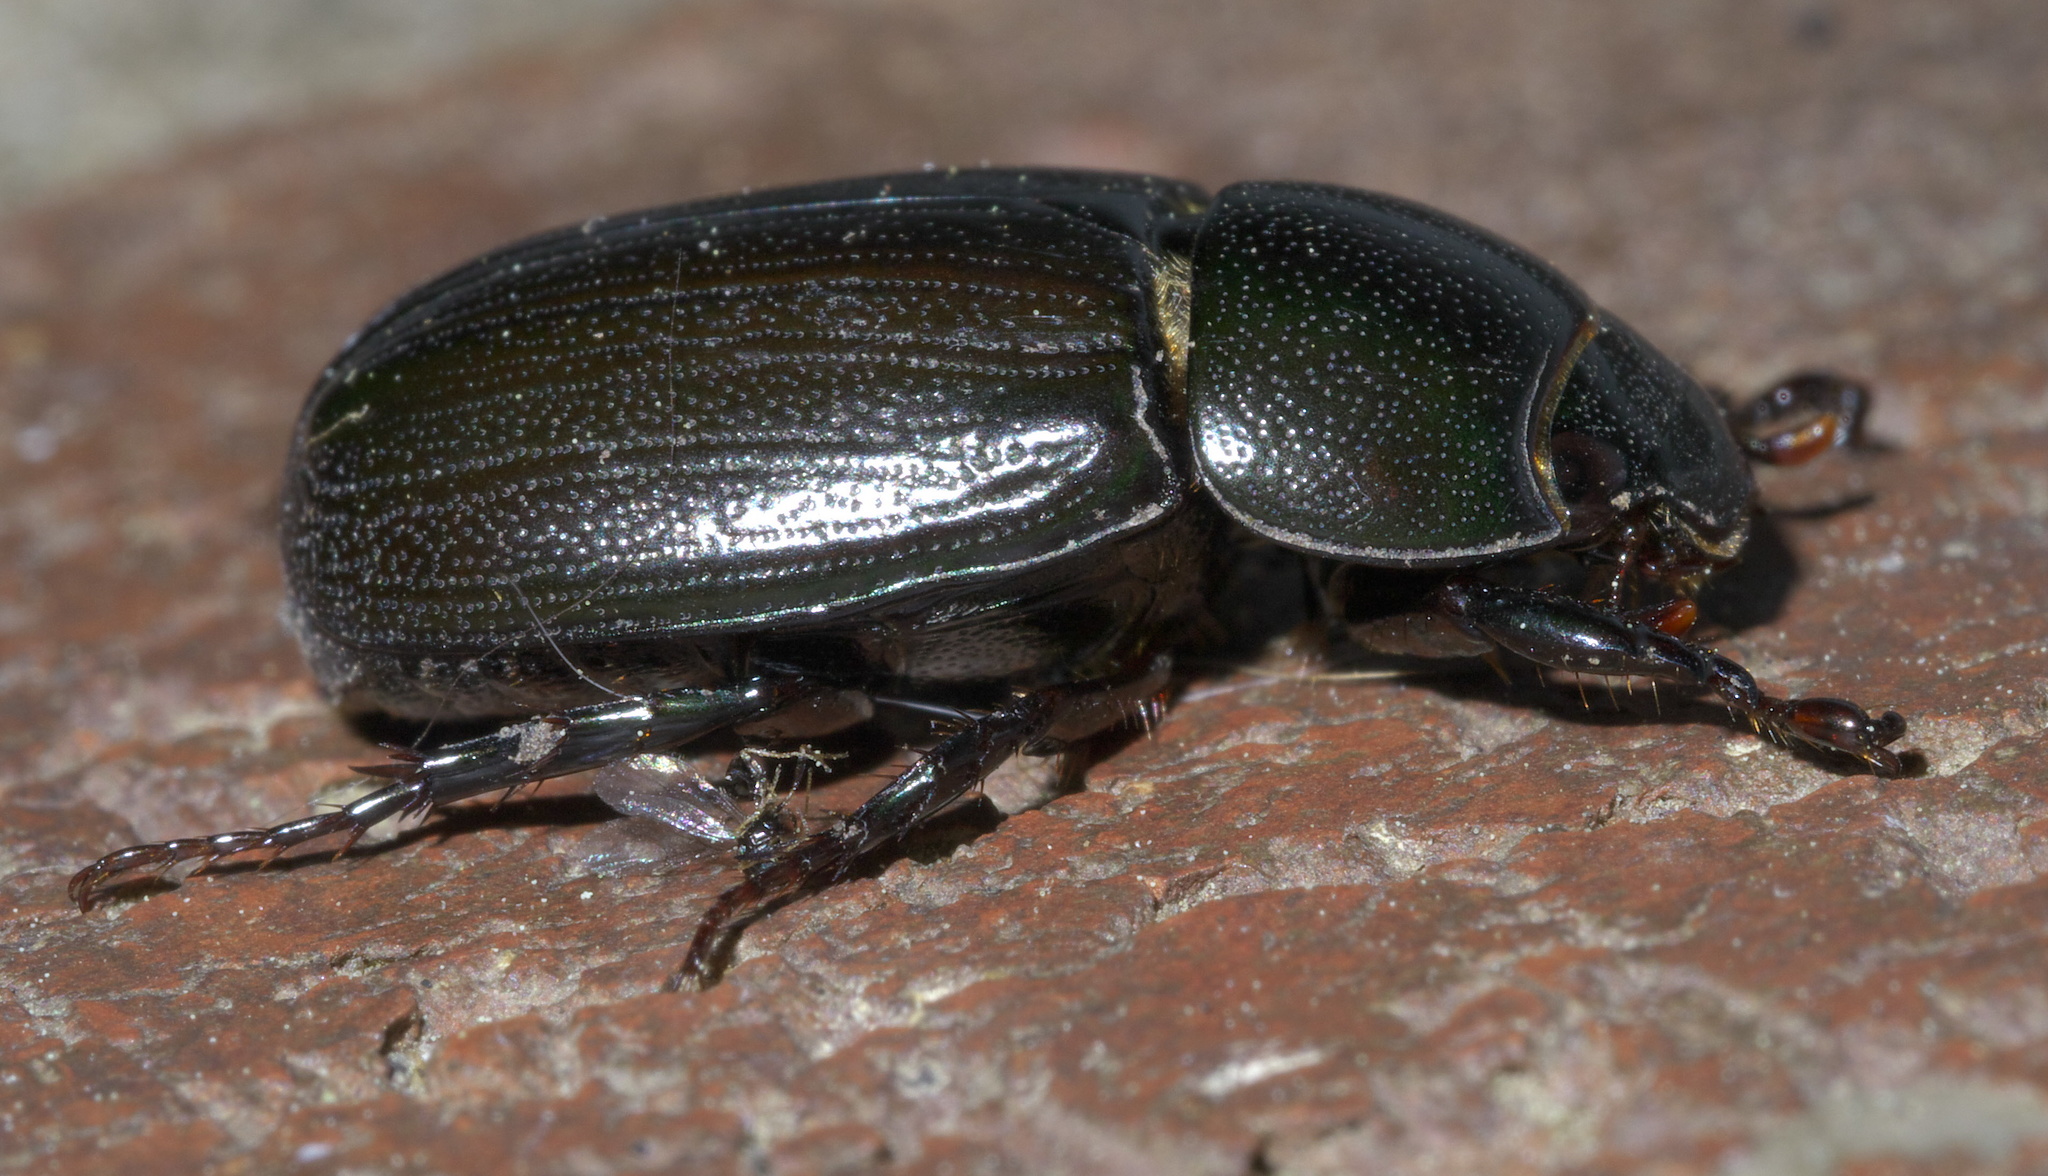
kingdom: Animalia
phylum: Arthropoda
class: Insecta
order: Coleoptera
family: Scarabaeidae
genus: Dyscinetus
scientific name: Dyscinetus morator
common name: Rice beetle
